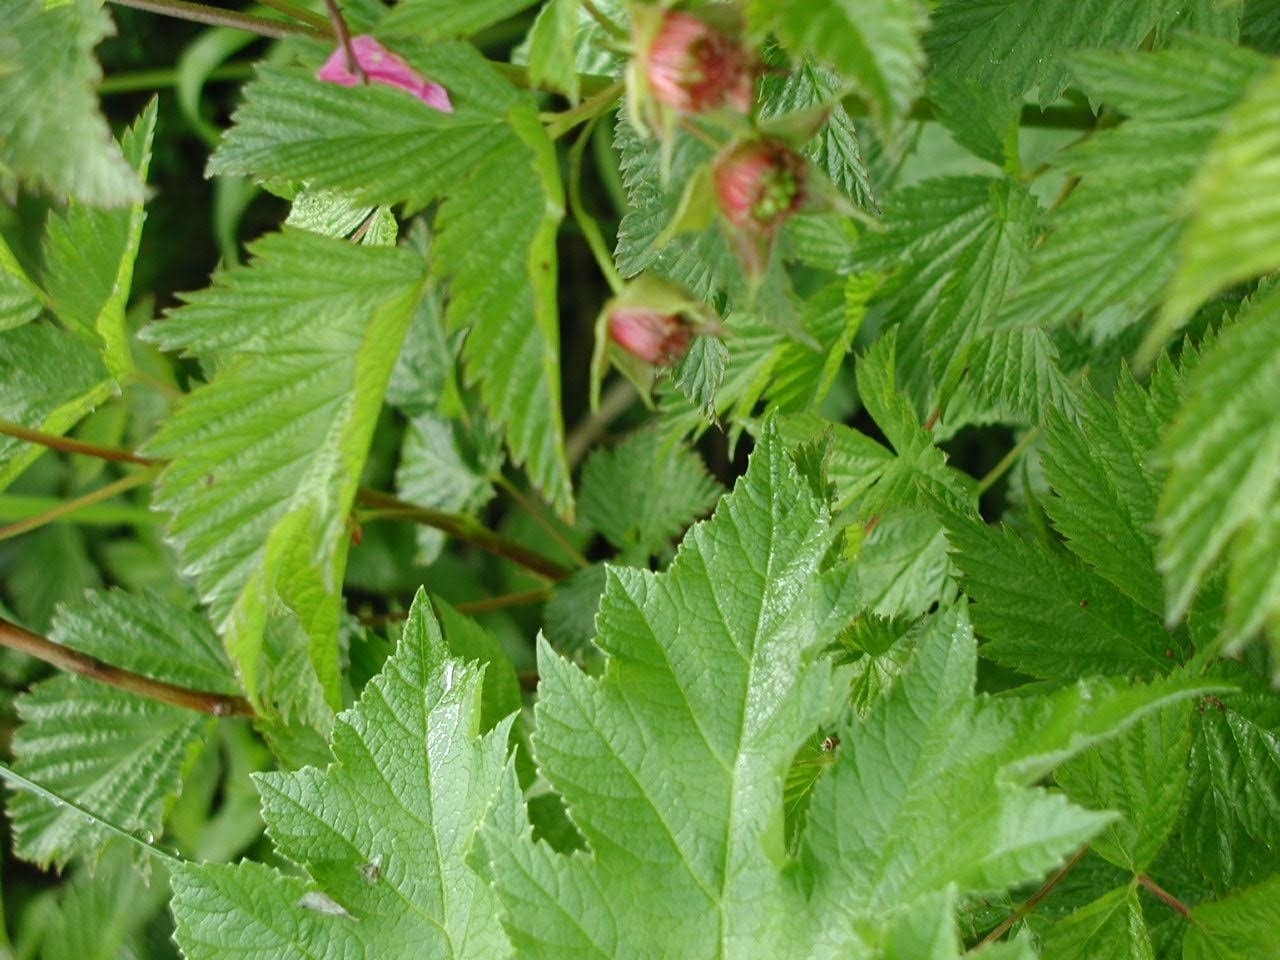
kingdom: Plantae
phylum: Tracheophyta
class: Magnoliopsida
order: Rosales
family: Rosaceae
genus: Rubus
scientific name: Rubus spectabilis
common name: Salmonberry
